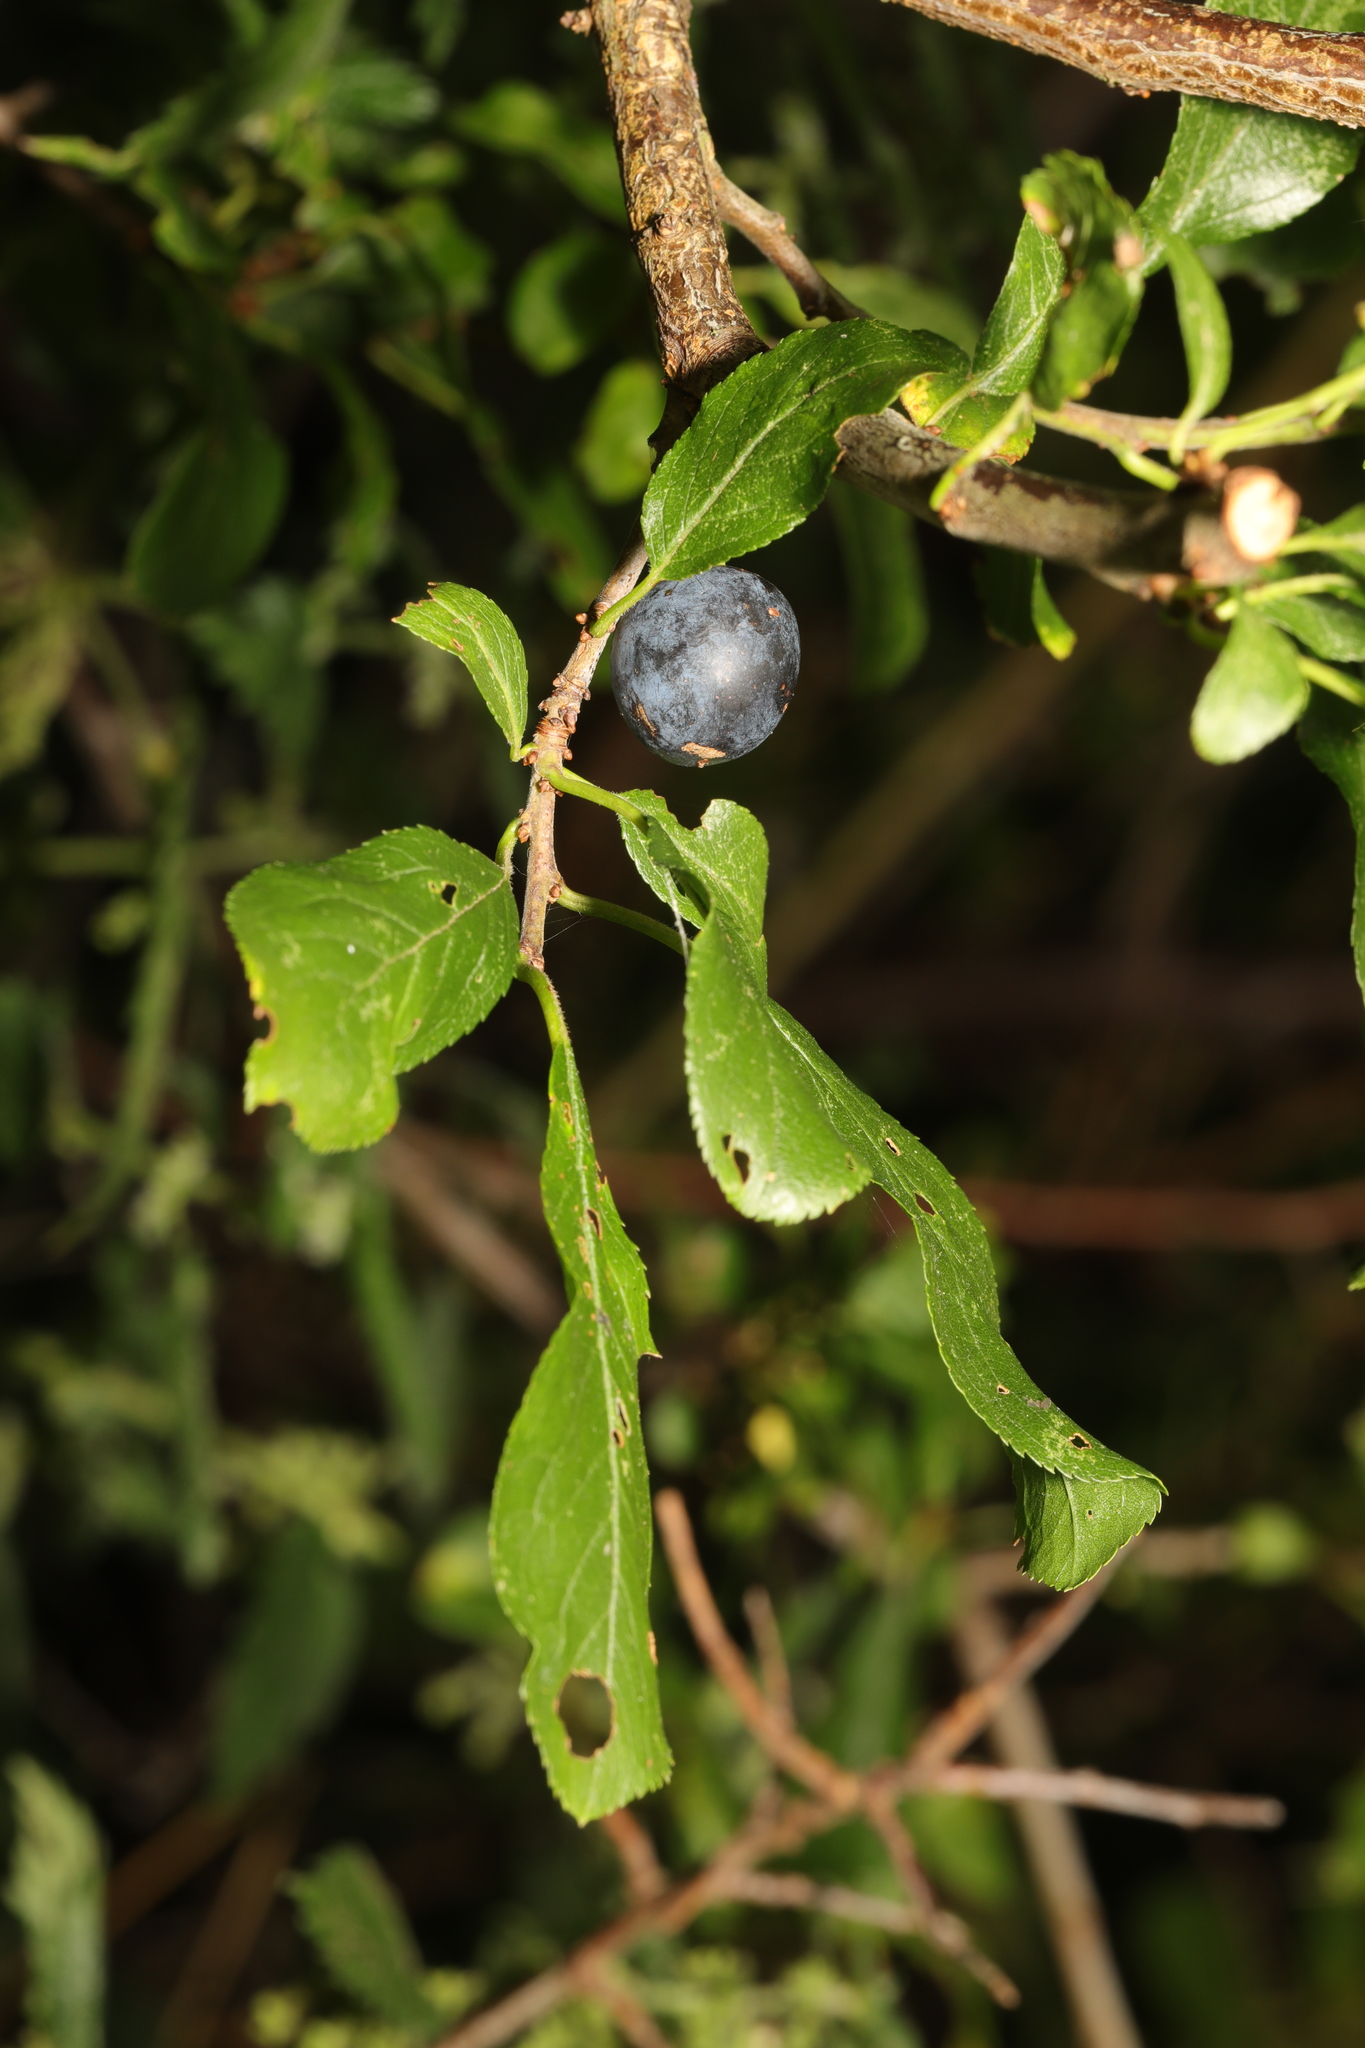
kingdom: Plantae
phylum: Tracheophyta
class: Magnoliopsida
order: Rosales
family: Rosaceae
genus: Prunus
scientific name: Prunus spinosa
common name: Blackthorn
